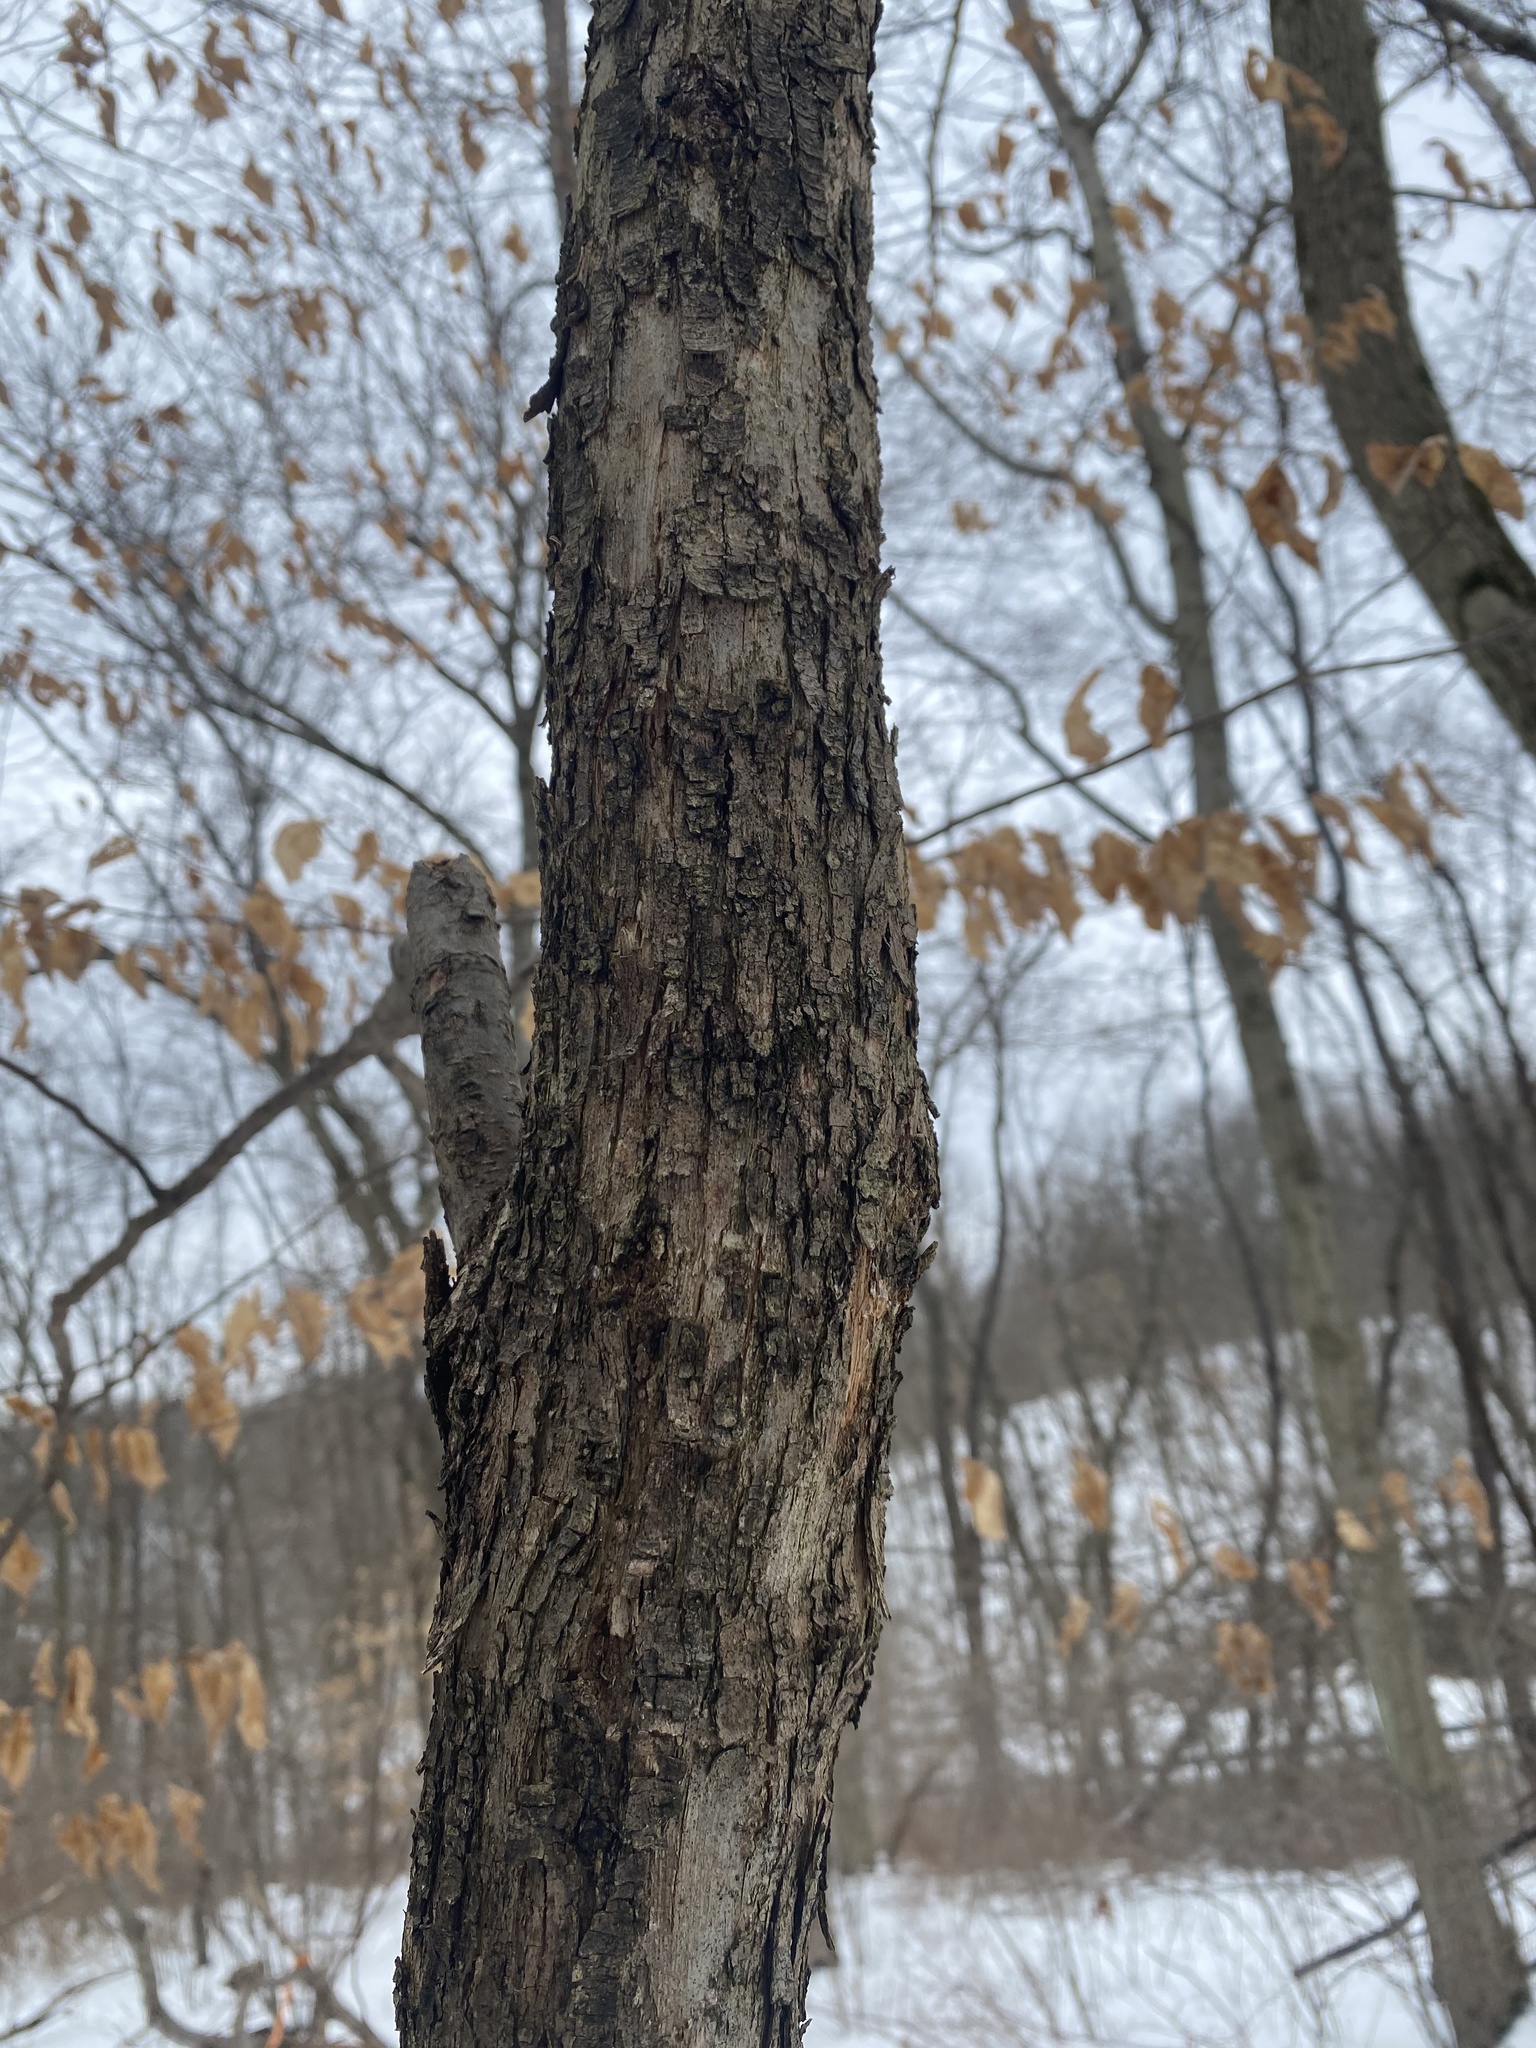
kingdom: Plantae
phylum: Tracheophyta
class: Magnoliopsida
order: Fagales
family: Betulaceae
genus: Ostrya
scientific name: Ostrya virginiana
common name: Ironwood
